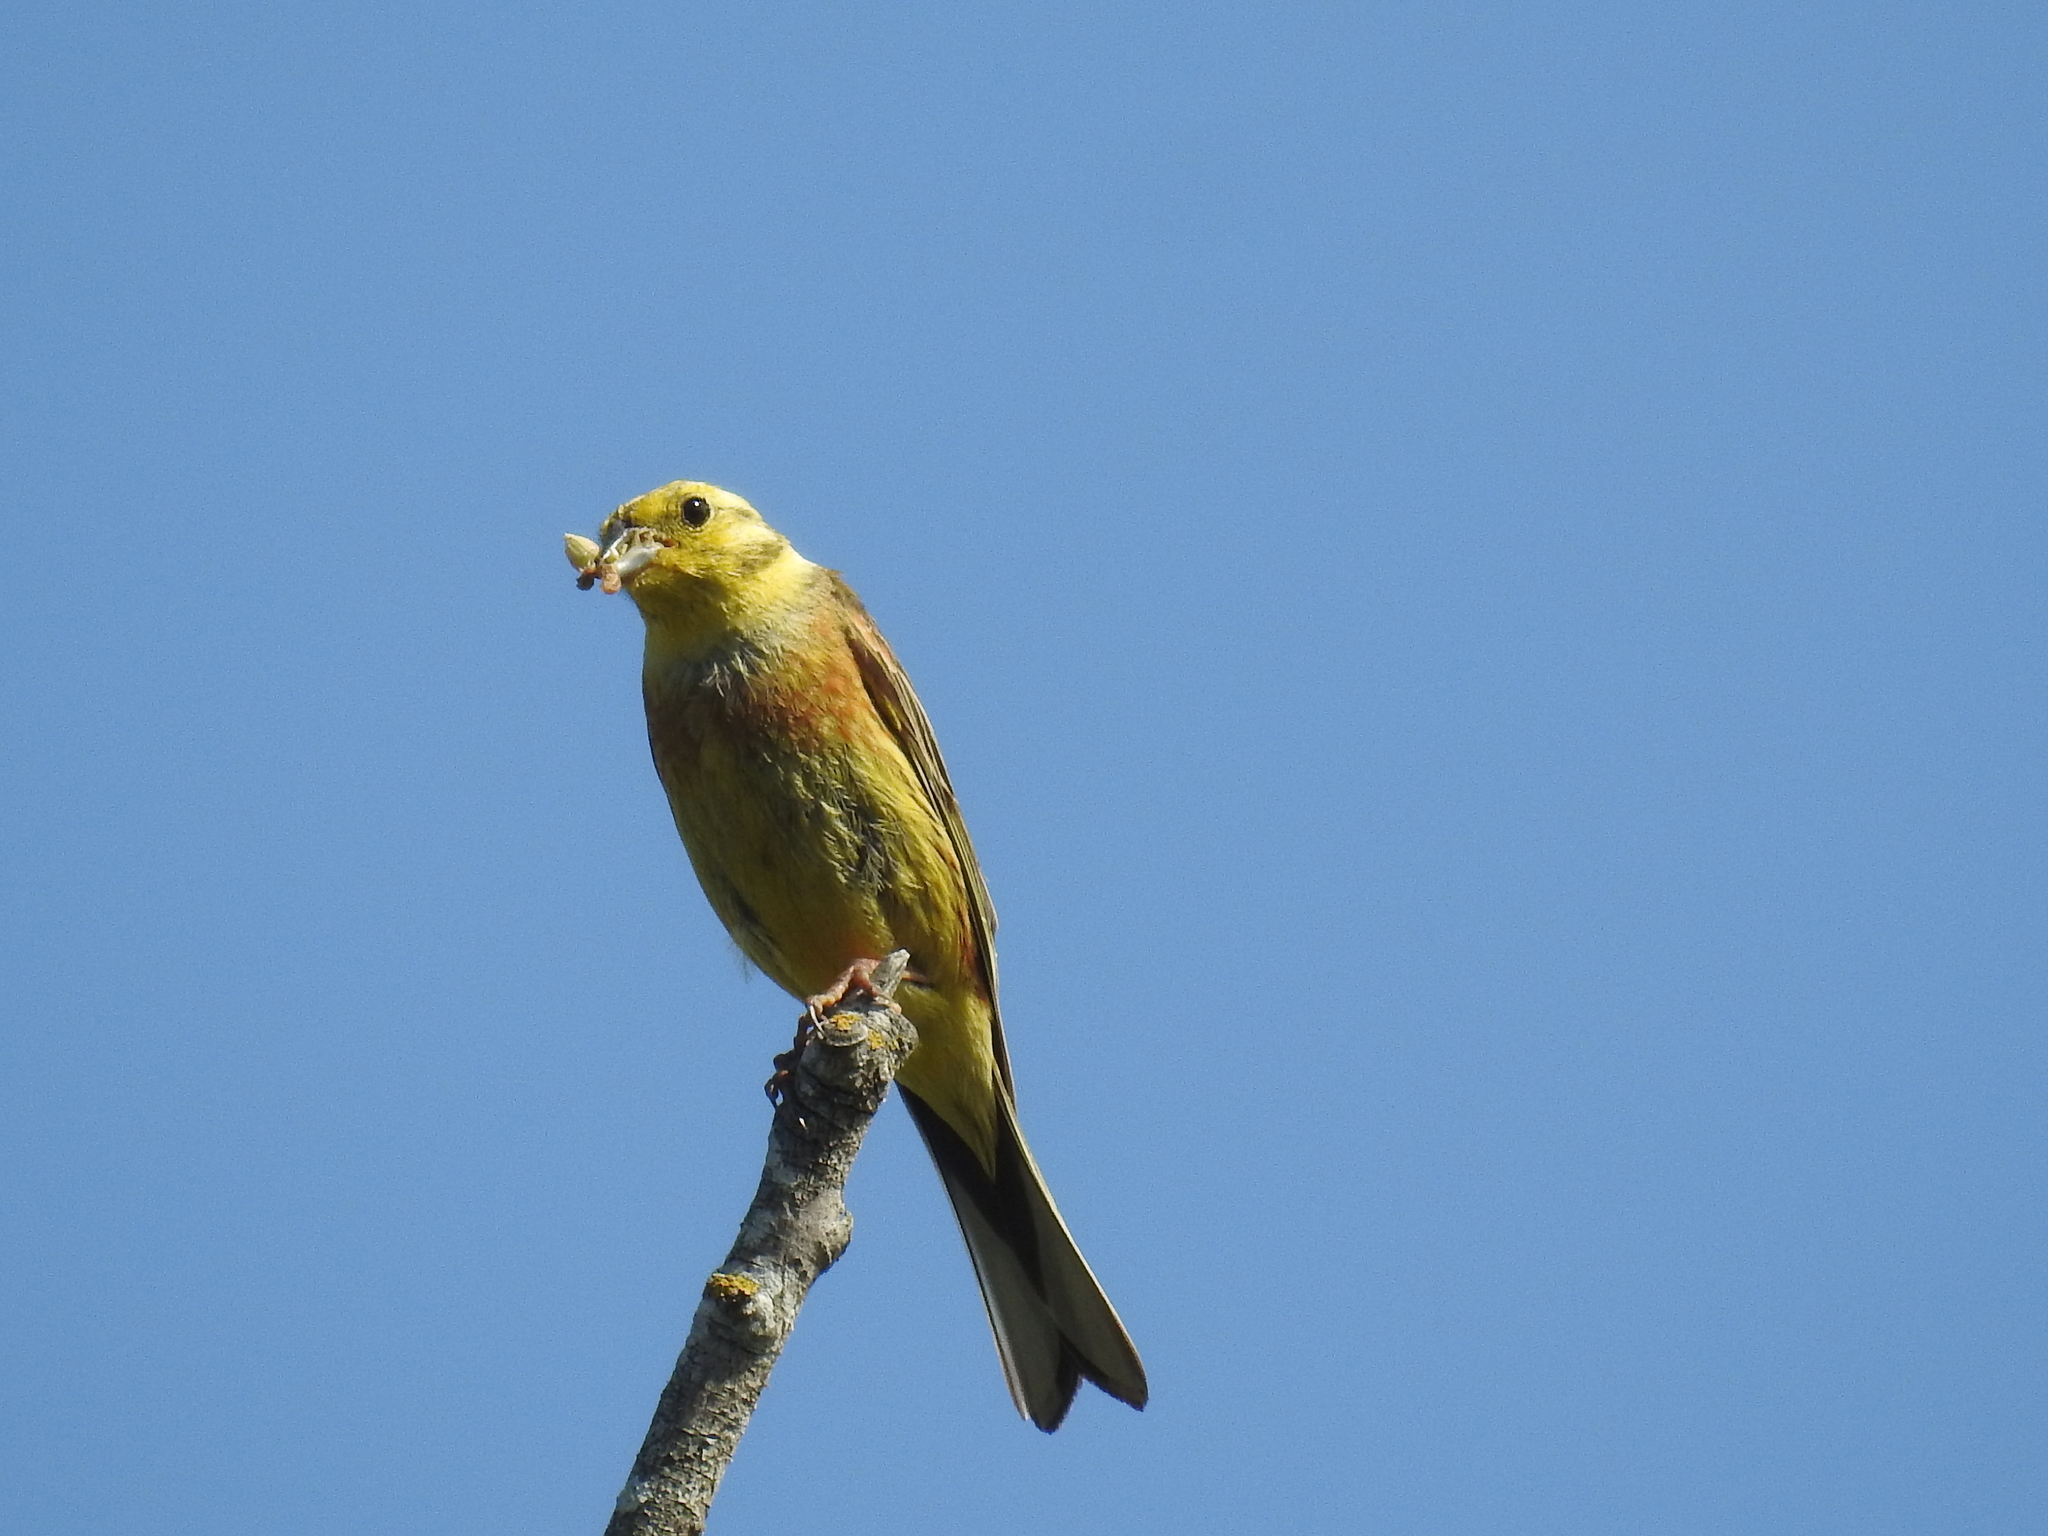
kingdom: Animalia
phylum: Chordata
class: Aves
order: Passeriformes
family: Emberizidae
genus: Emberiza
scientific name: Emberiza citrinella
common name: Yellowhammer
